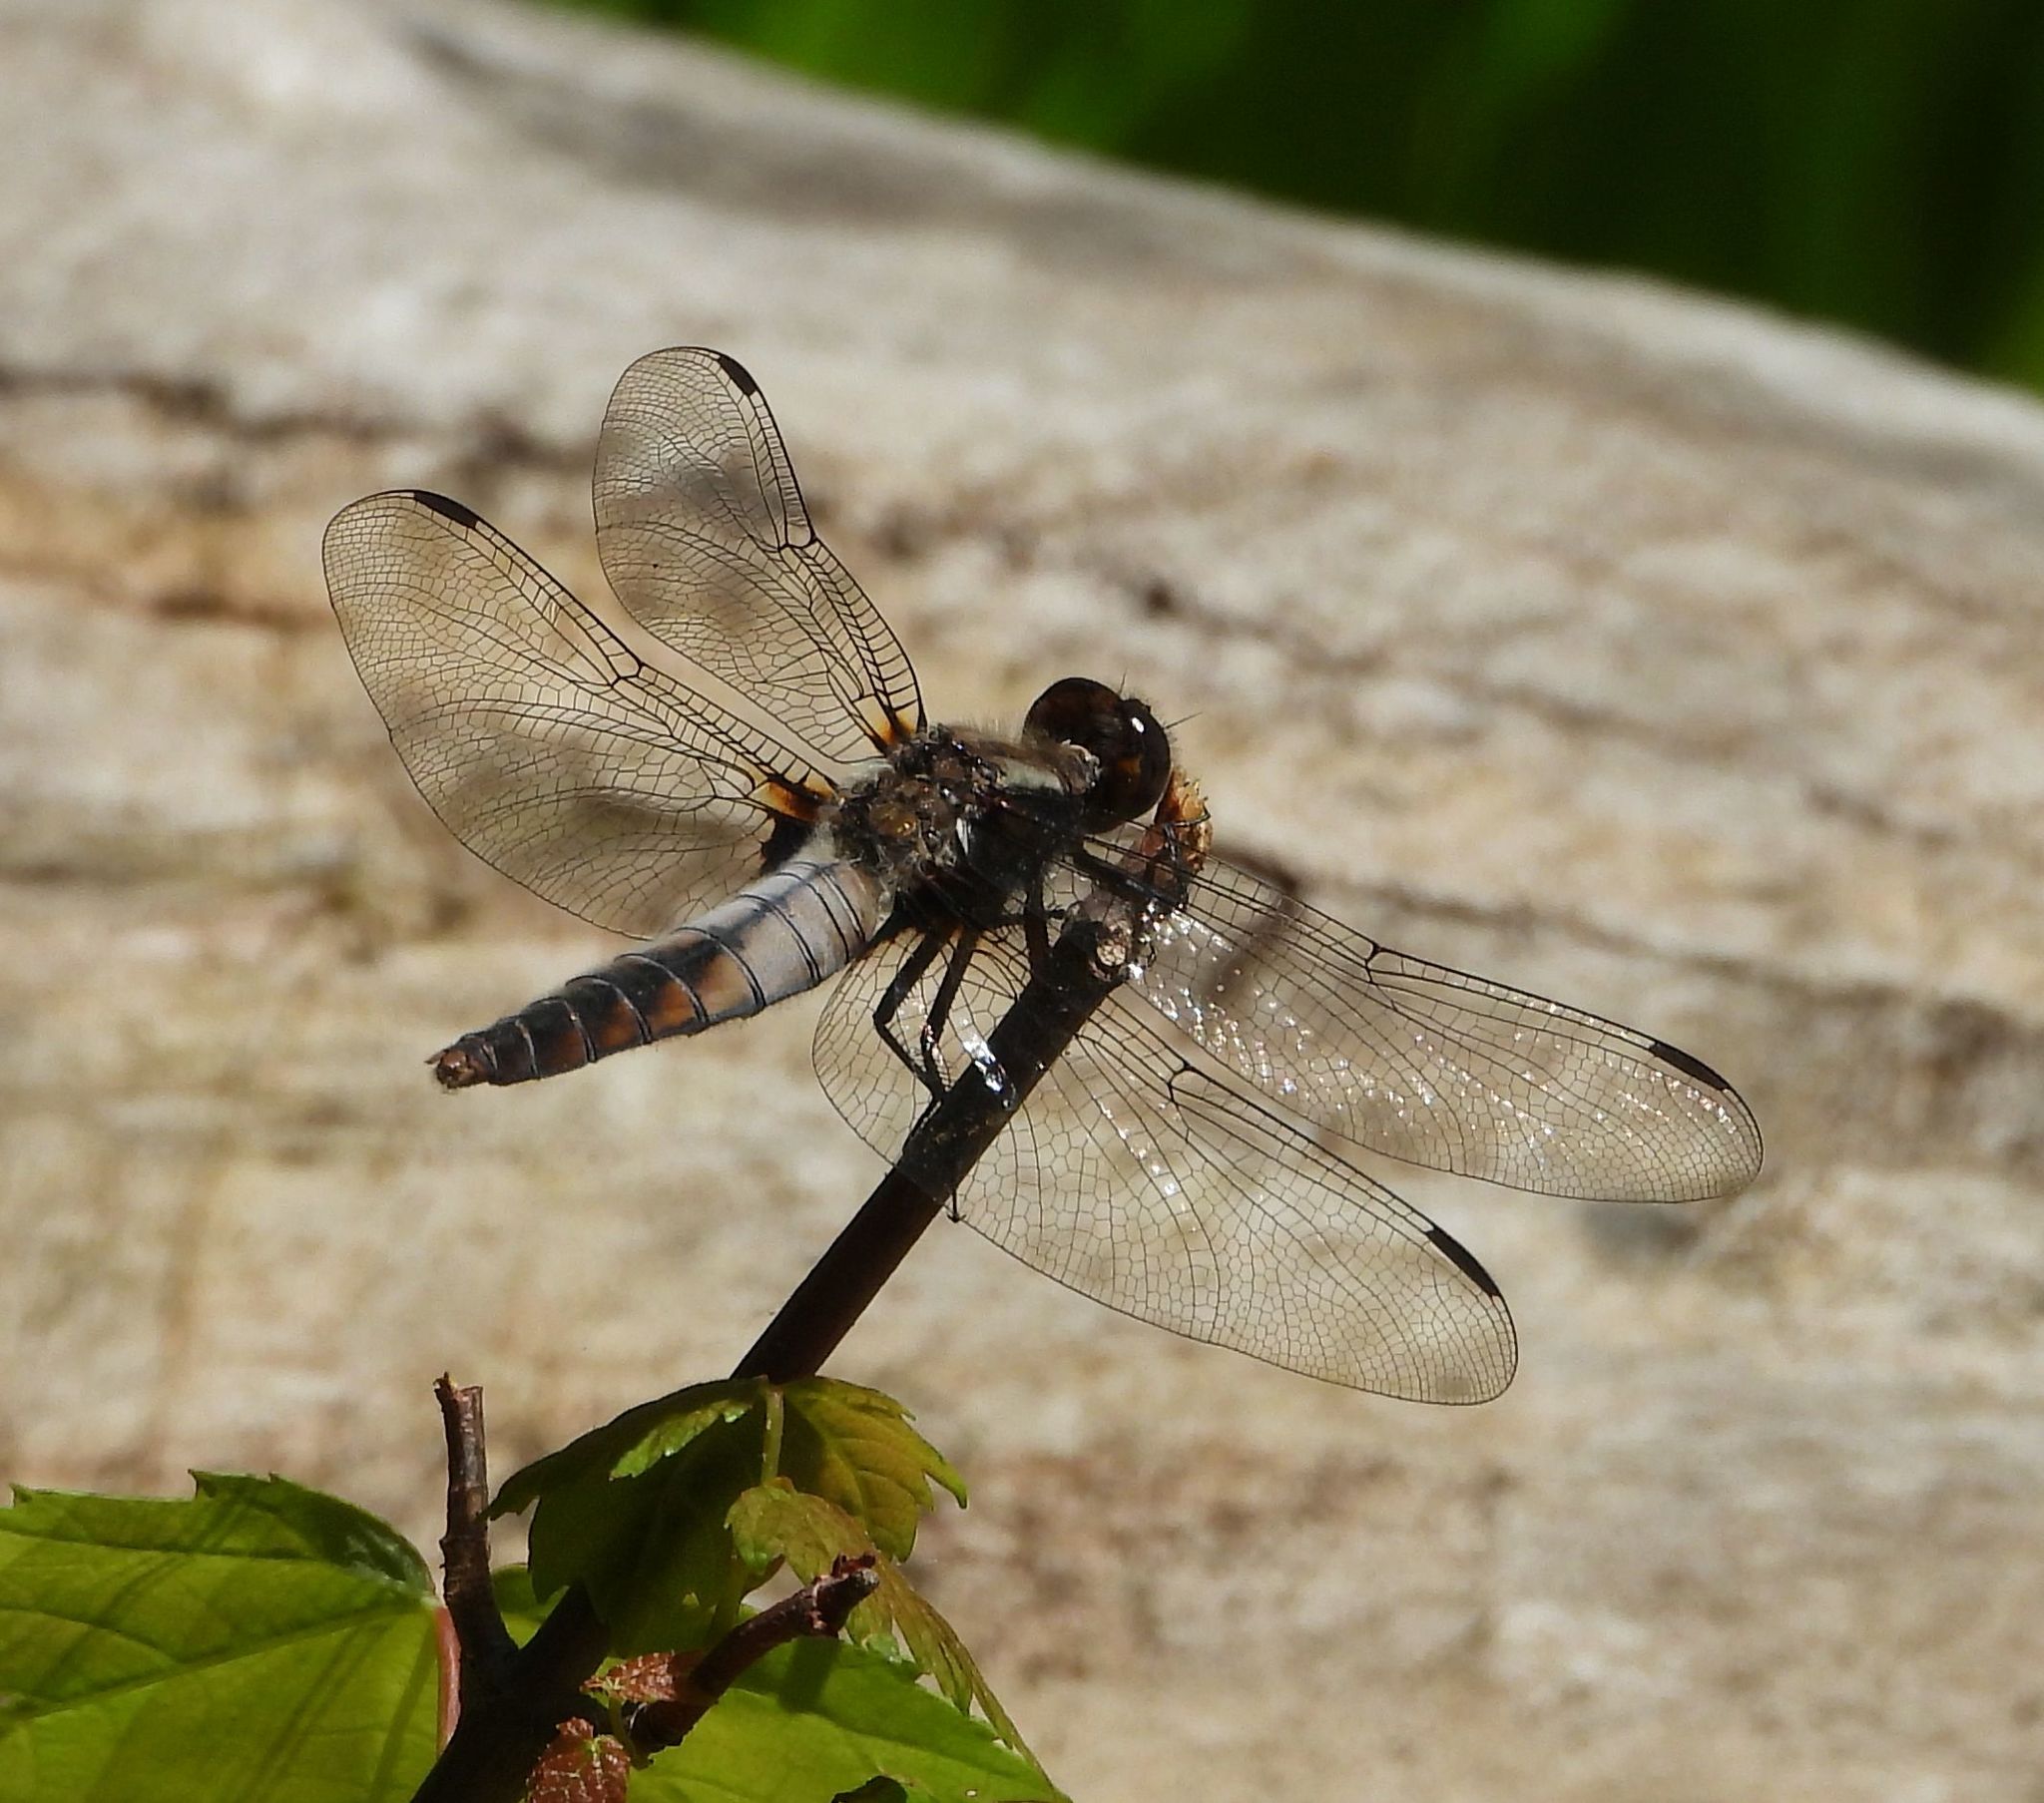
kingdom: Animalia
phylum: Arthropoda
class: Insecta
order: Odonata
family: Libellulidae
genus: Ladona
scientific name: Ladona julia
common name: Chalk-fronted corporal
